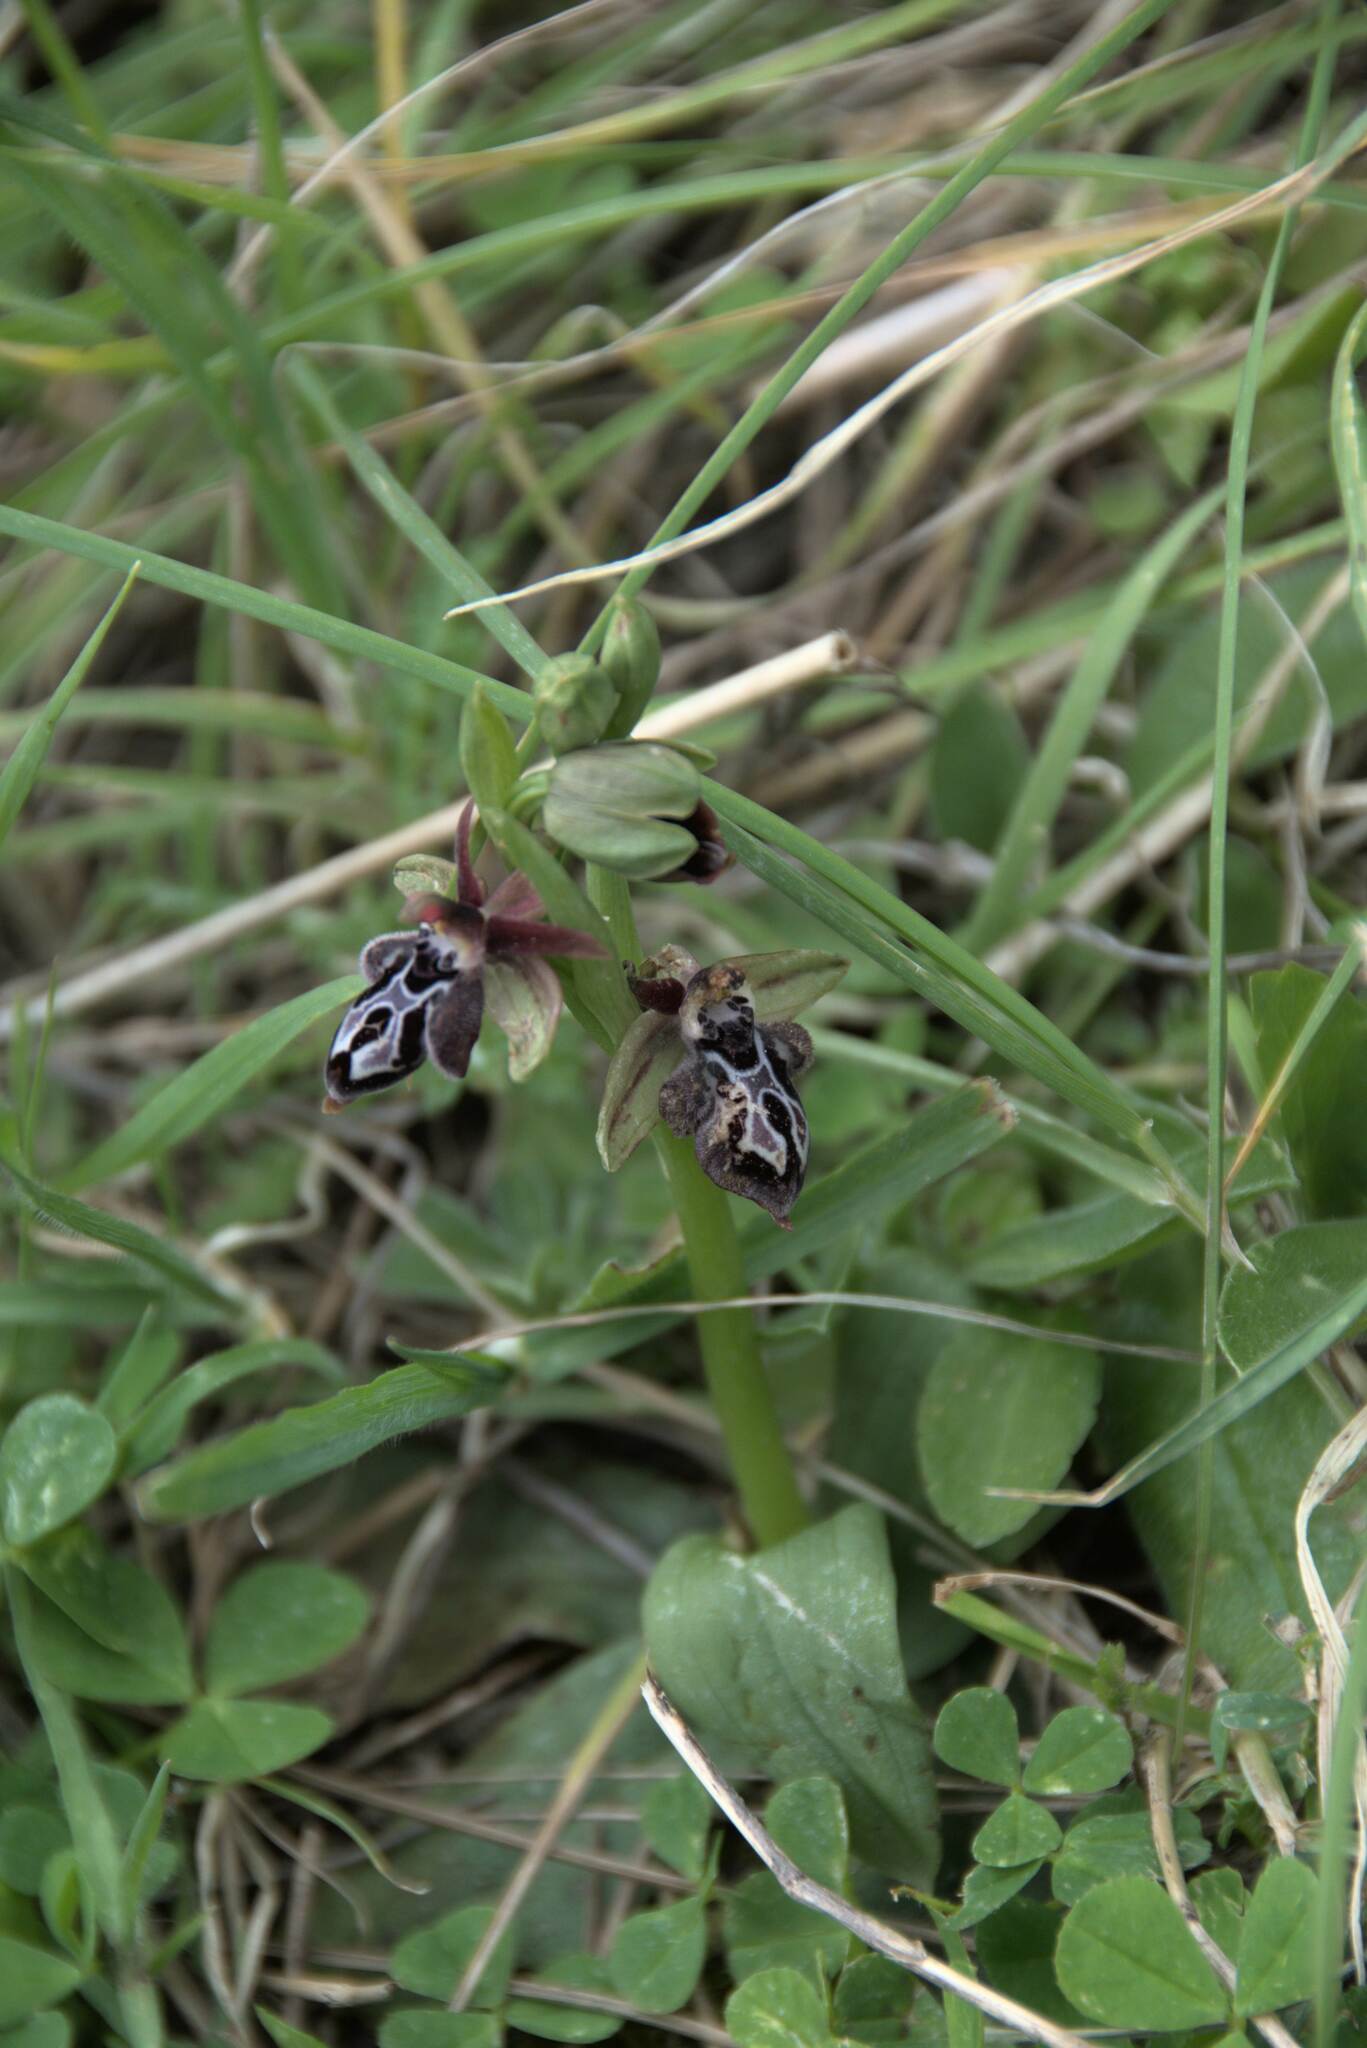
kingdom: Plantae
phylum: Tracheophyta
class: Liliopsida
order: Asparagales
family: Orchidaceae
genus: Ophrys
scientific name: Ophrys cretica
